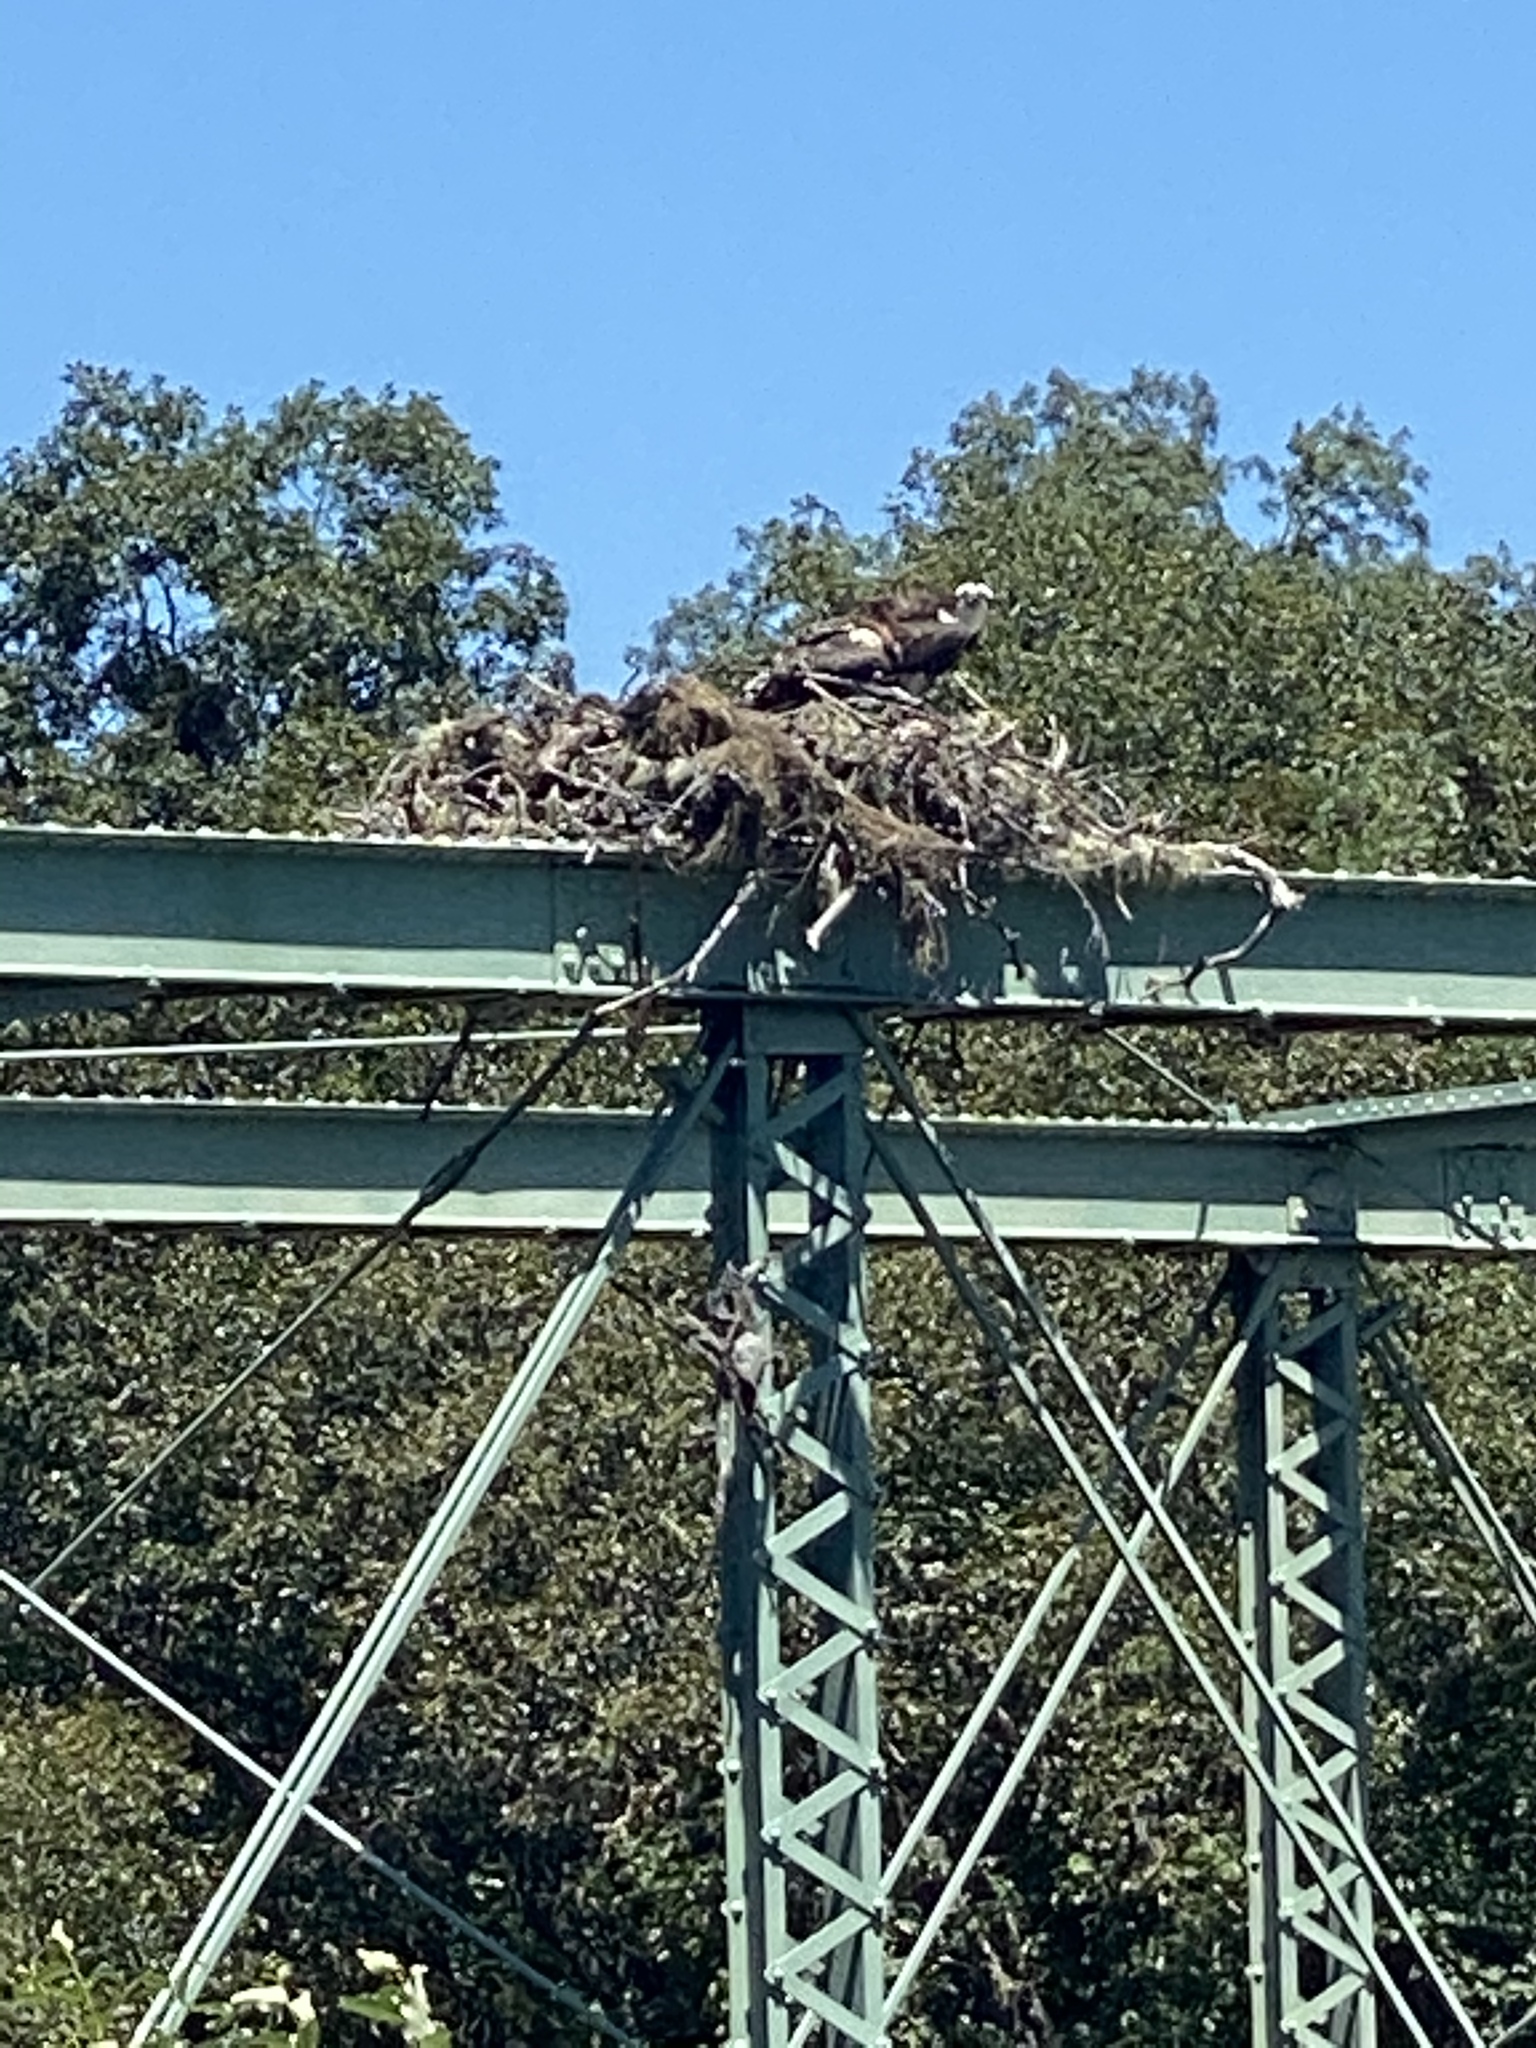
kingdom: Animalia
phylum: Chordata
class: Aves
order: Accipitriformes
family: Pandionidae
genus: Pandion
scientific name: Pandion haliaetus
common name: Osprey
